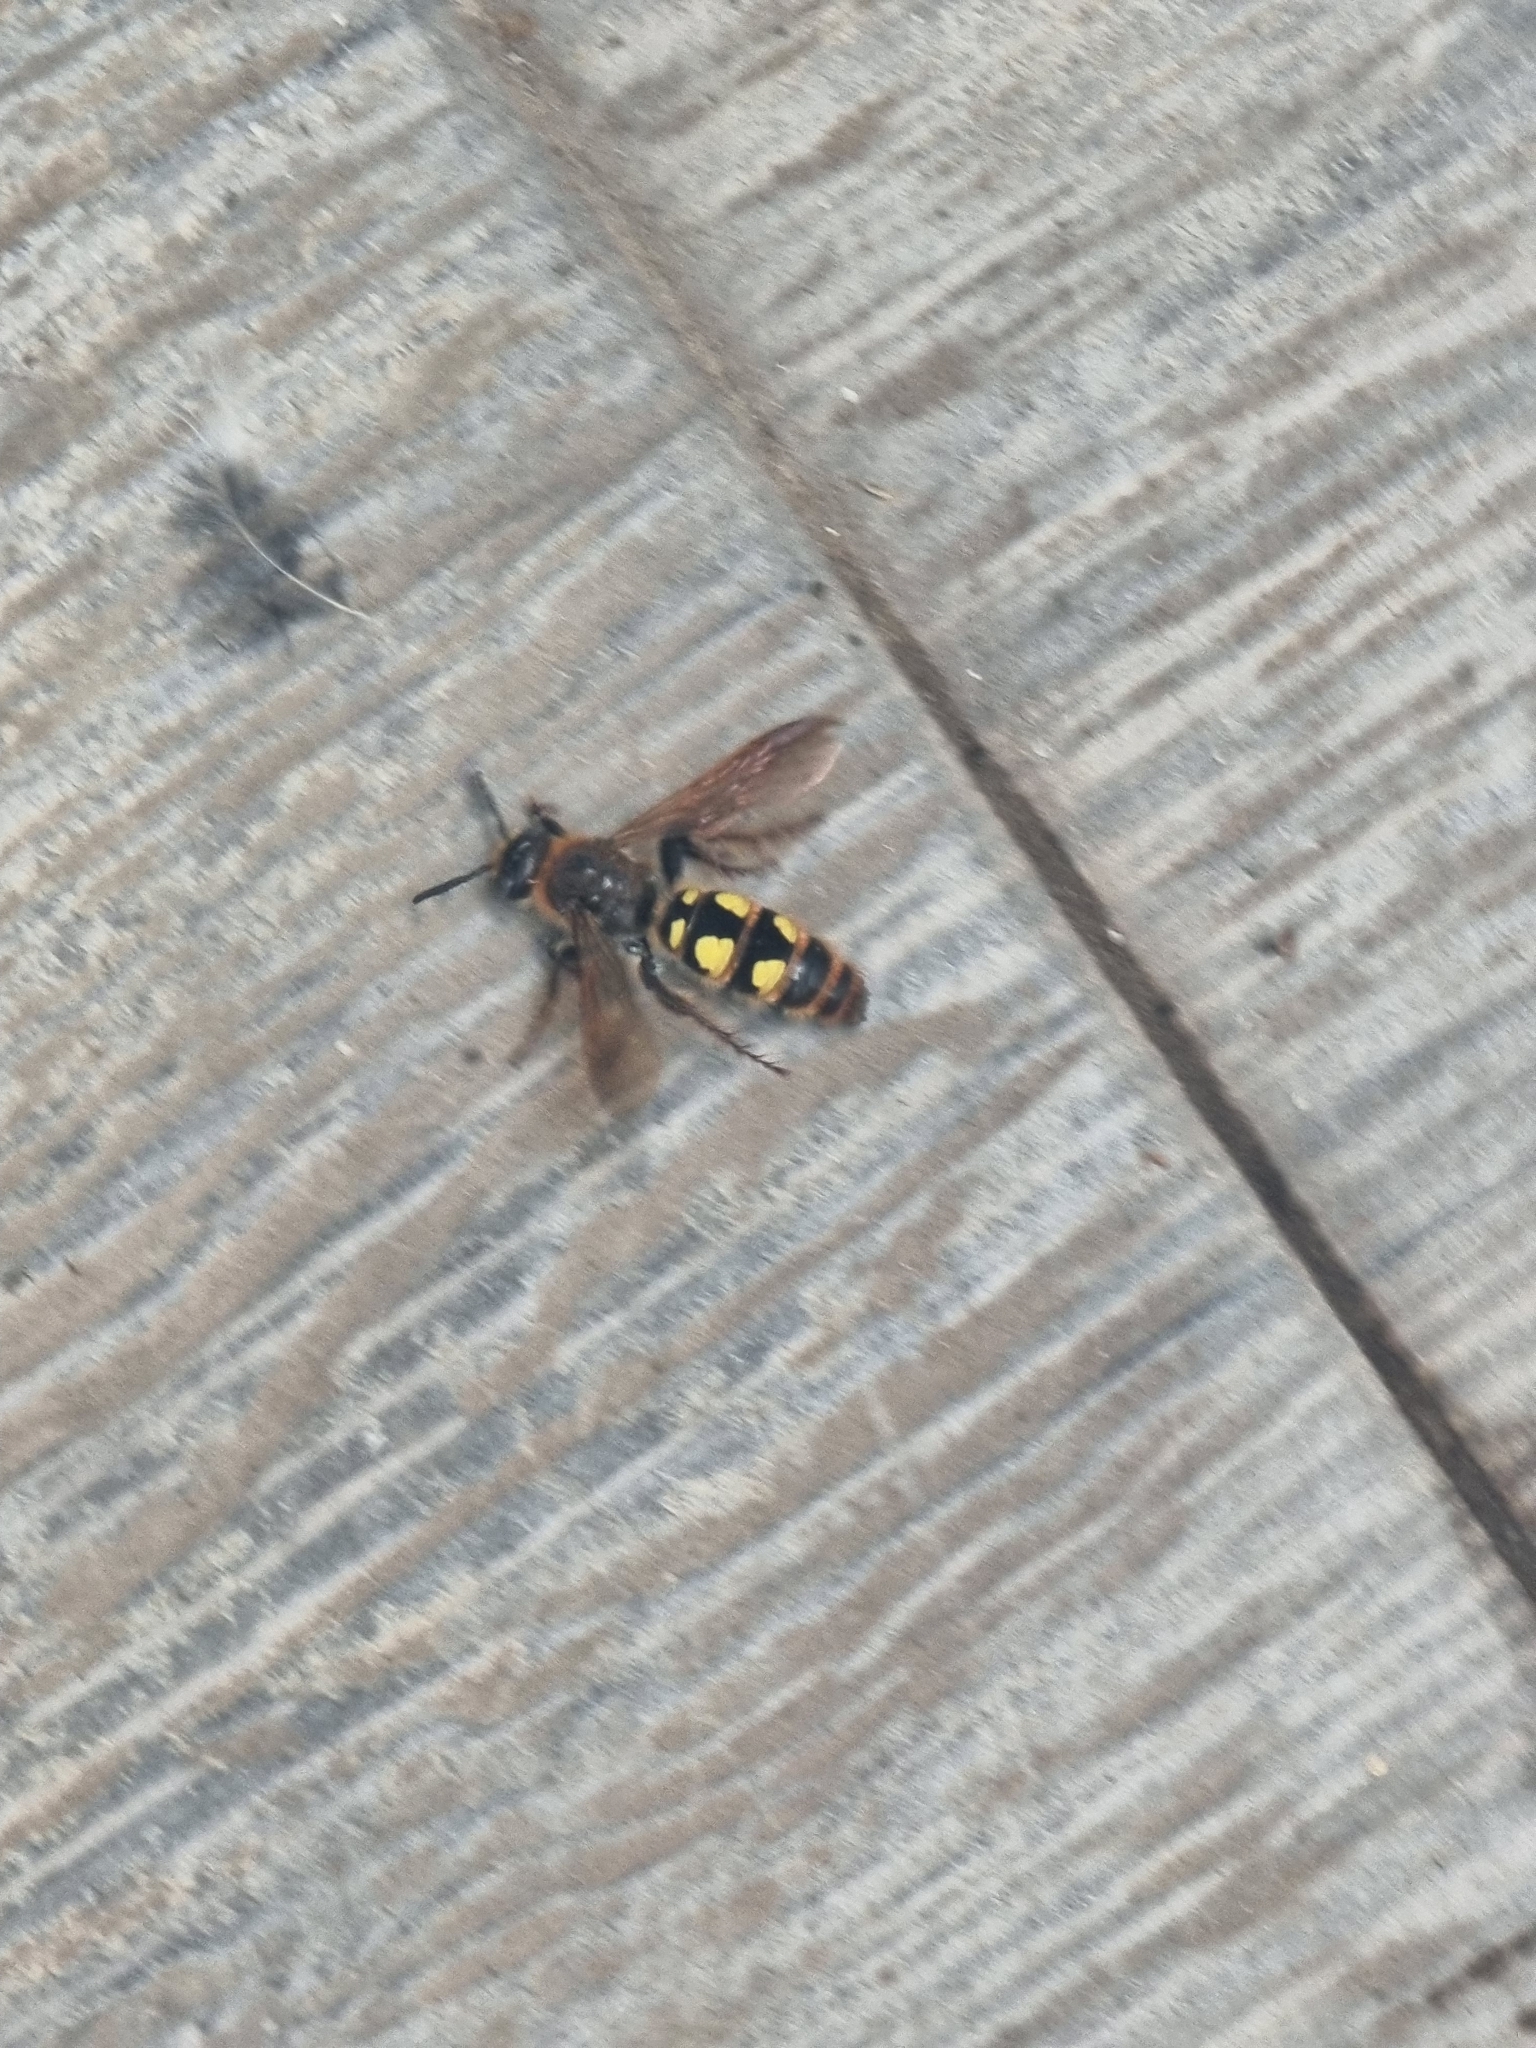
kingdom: Animalia
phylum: Arthropoda
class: Insecta
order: Hymenoptera
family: Scoliidae
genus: Xantocampsomeris
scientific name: Xantocampsomeris limosa
